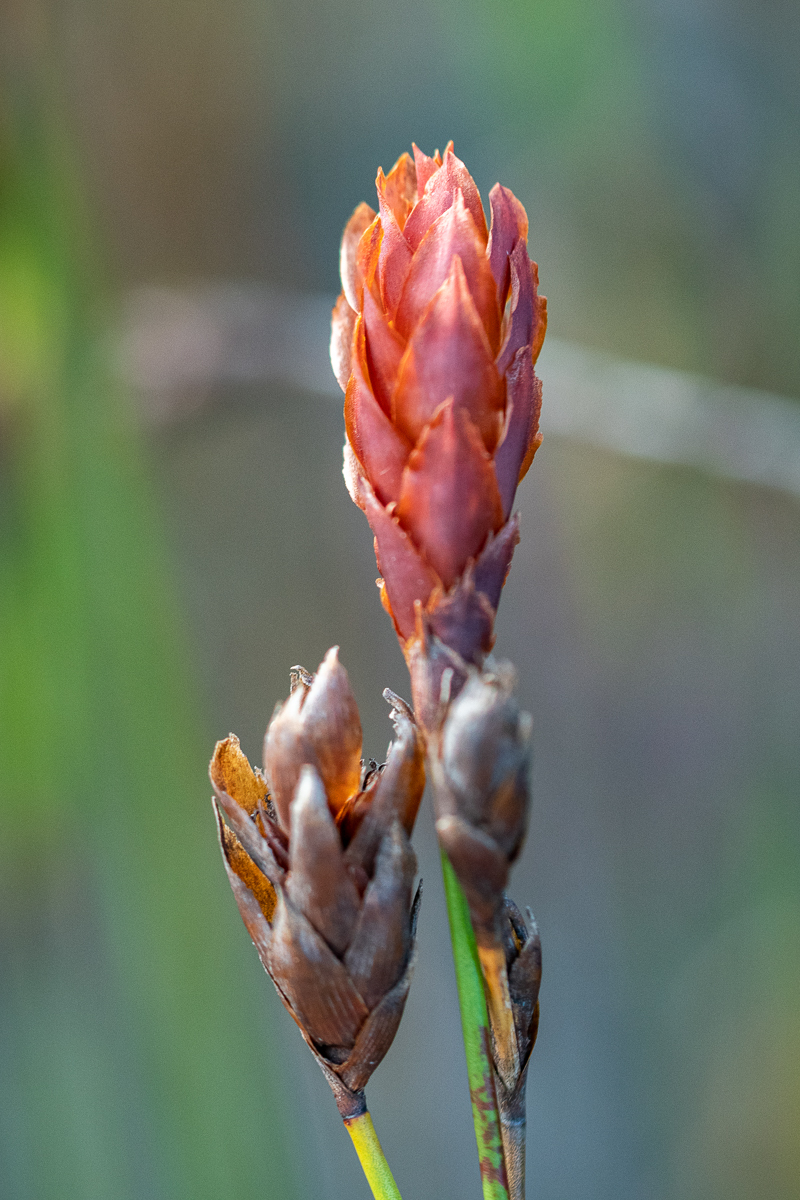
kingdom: Plantae
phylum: Tracheophyta
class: Liliopsida
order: Poales
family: Restionaceae
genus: Restio
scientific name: Restio bifarius
